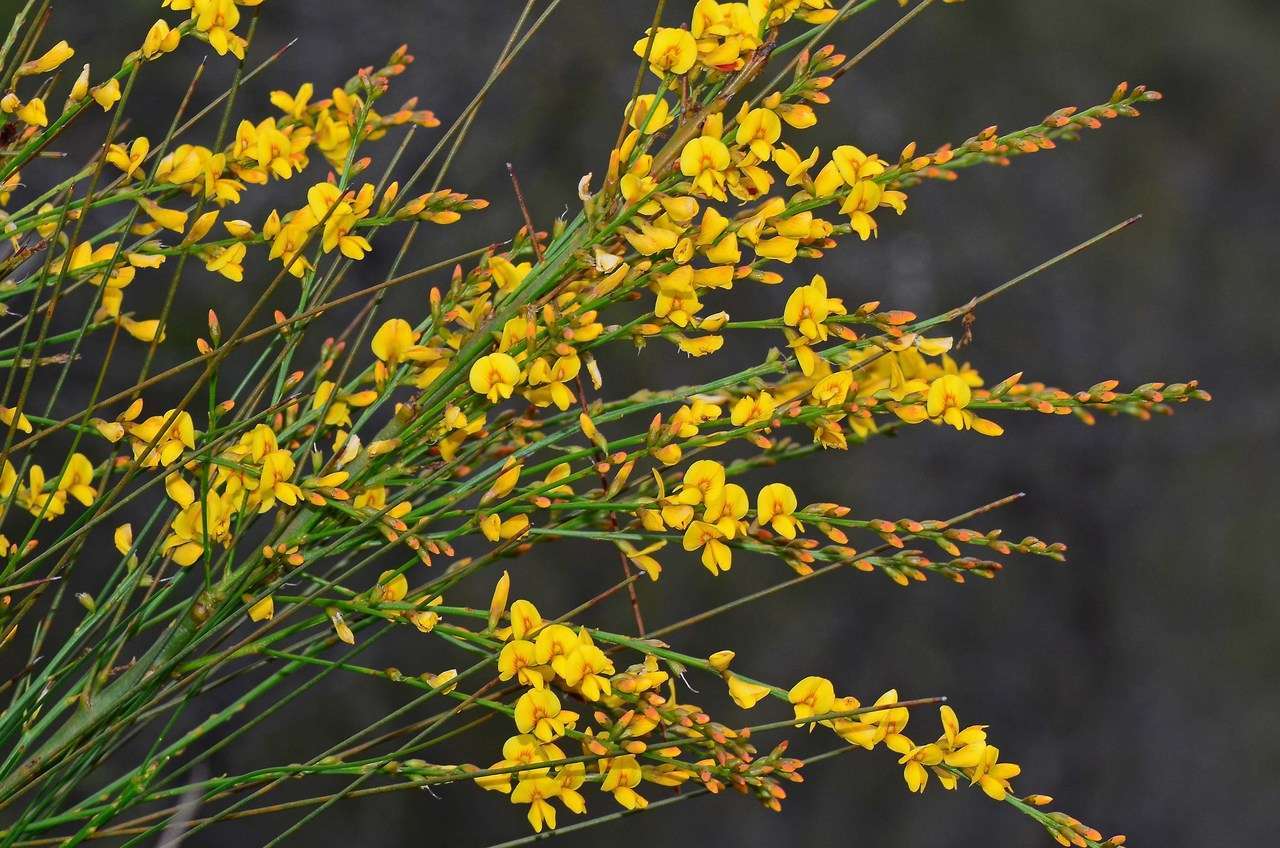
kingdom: Plantae
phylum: Tracheophyta
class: Magnoliopsida
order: Fabales
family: Fabaceae
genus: Viminaria
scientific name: Viminaria juncea
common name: Golden spray
